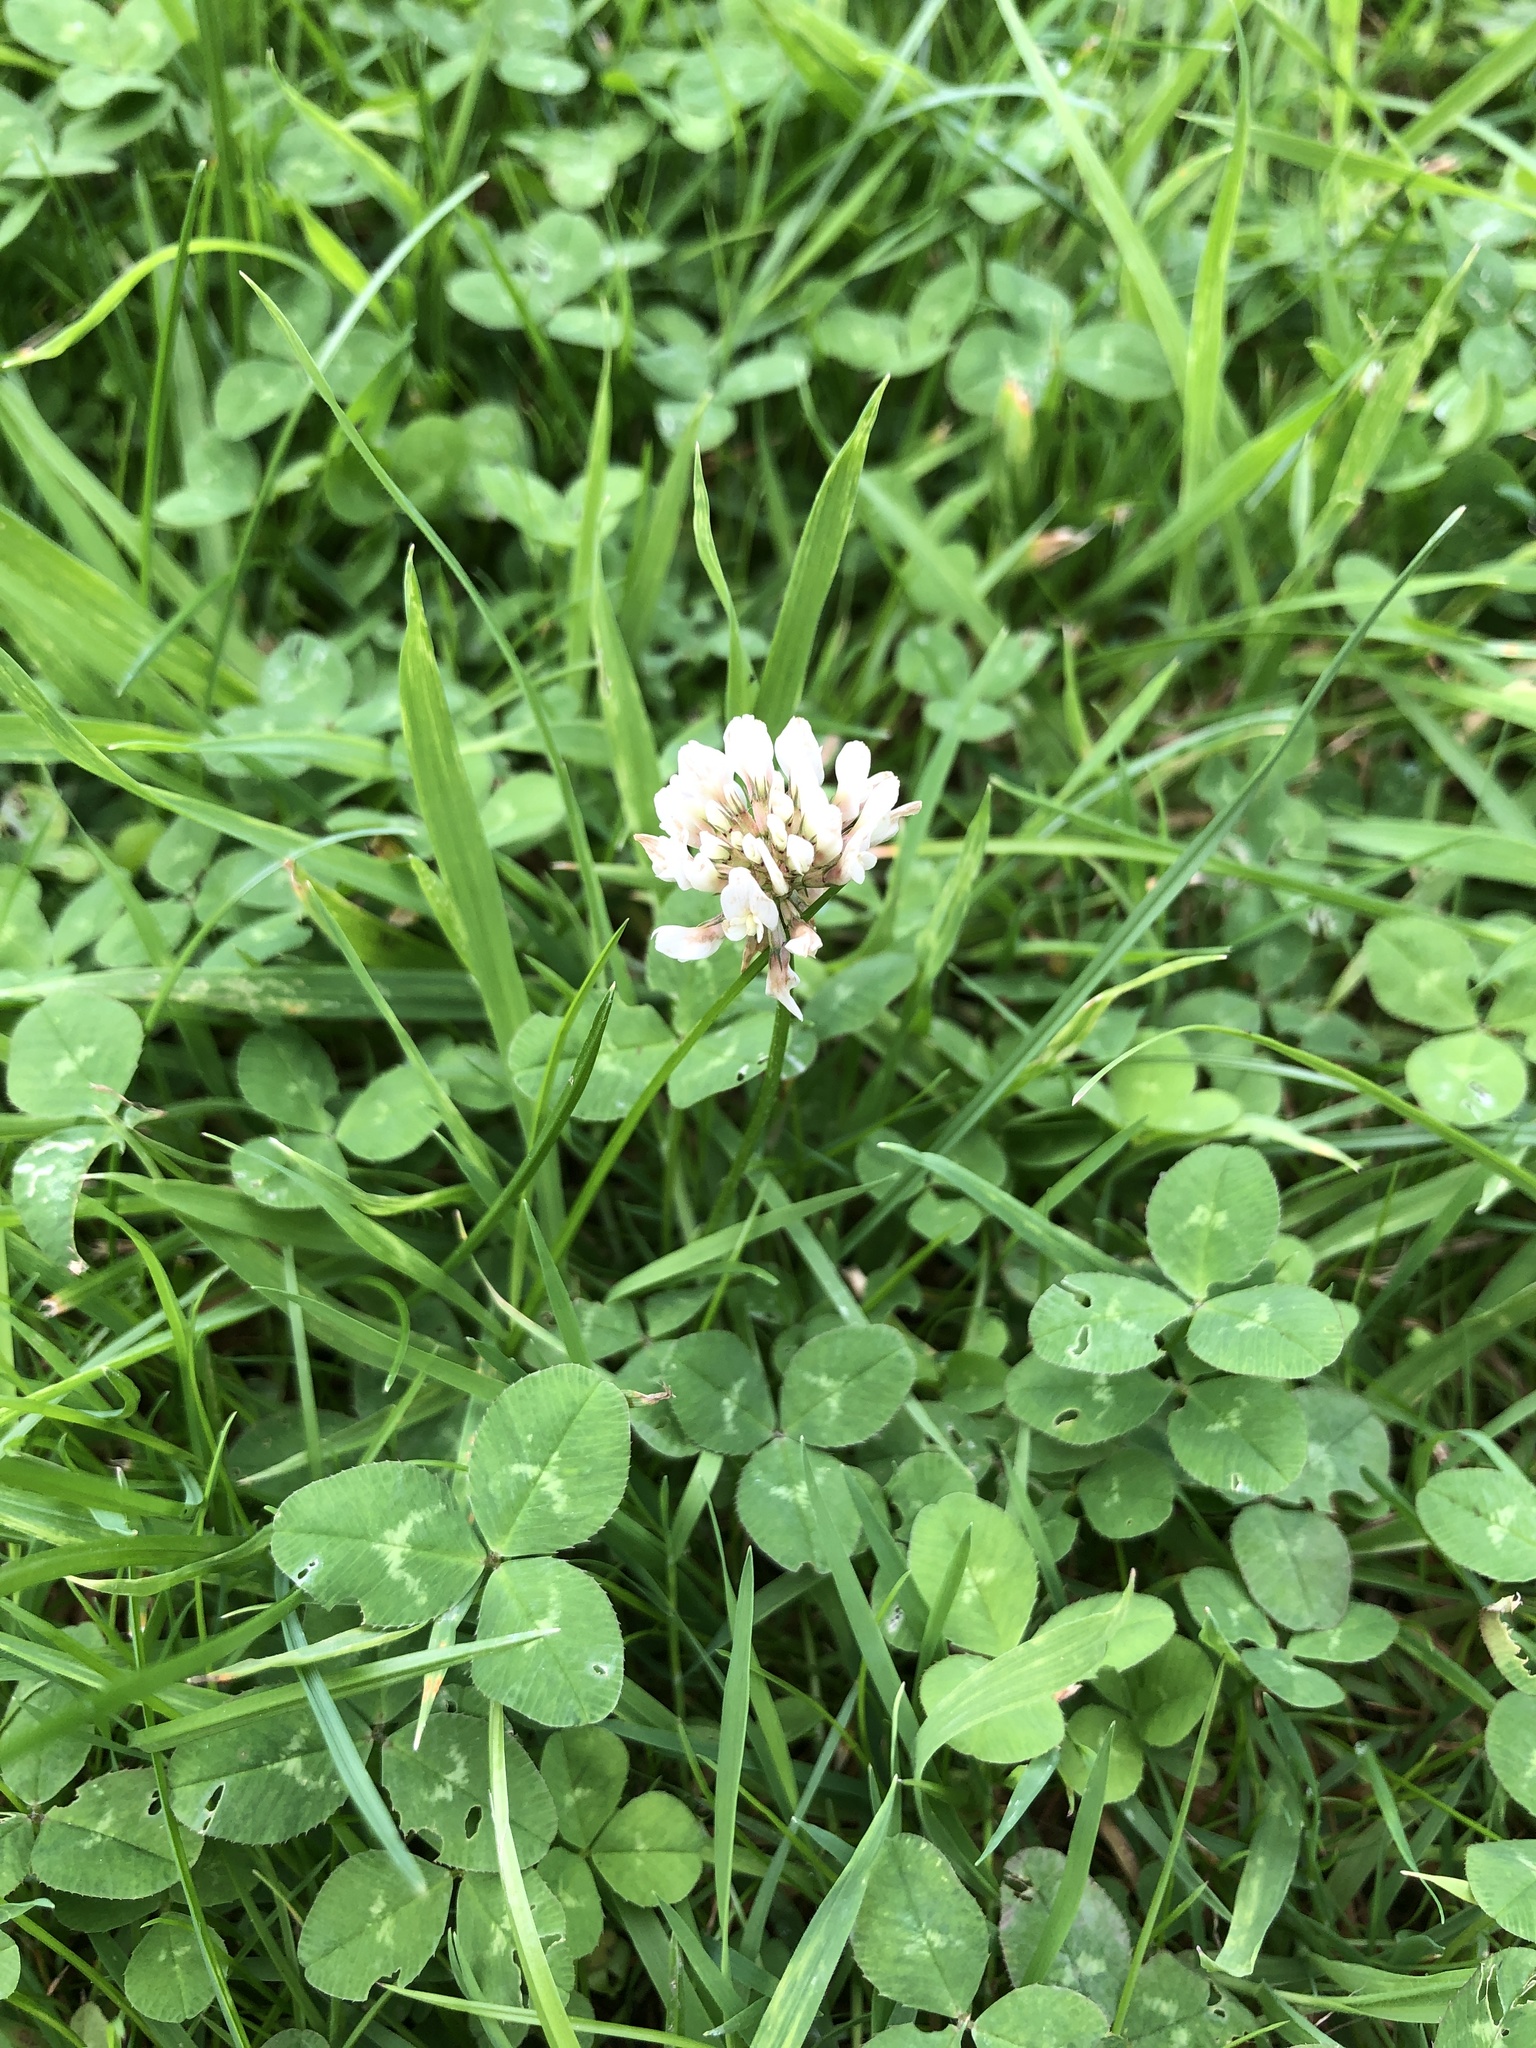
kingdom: Plantae
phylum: Tracheophyta
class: Magnoliopsida
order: Fabales
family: Fabaceae
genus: Trifolium
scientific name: Trifolium repens
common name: White clover
